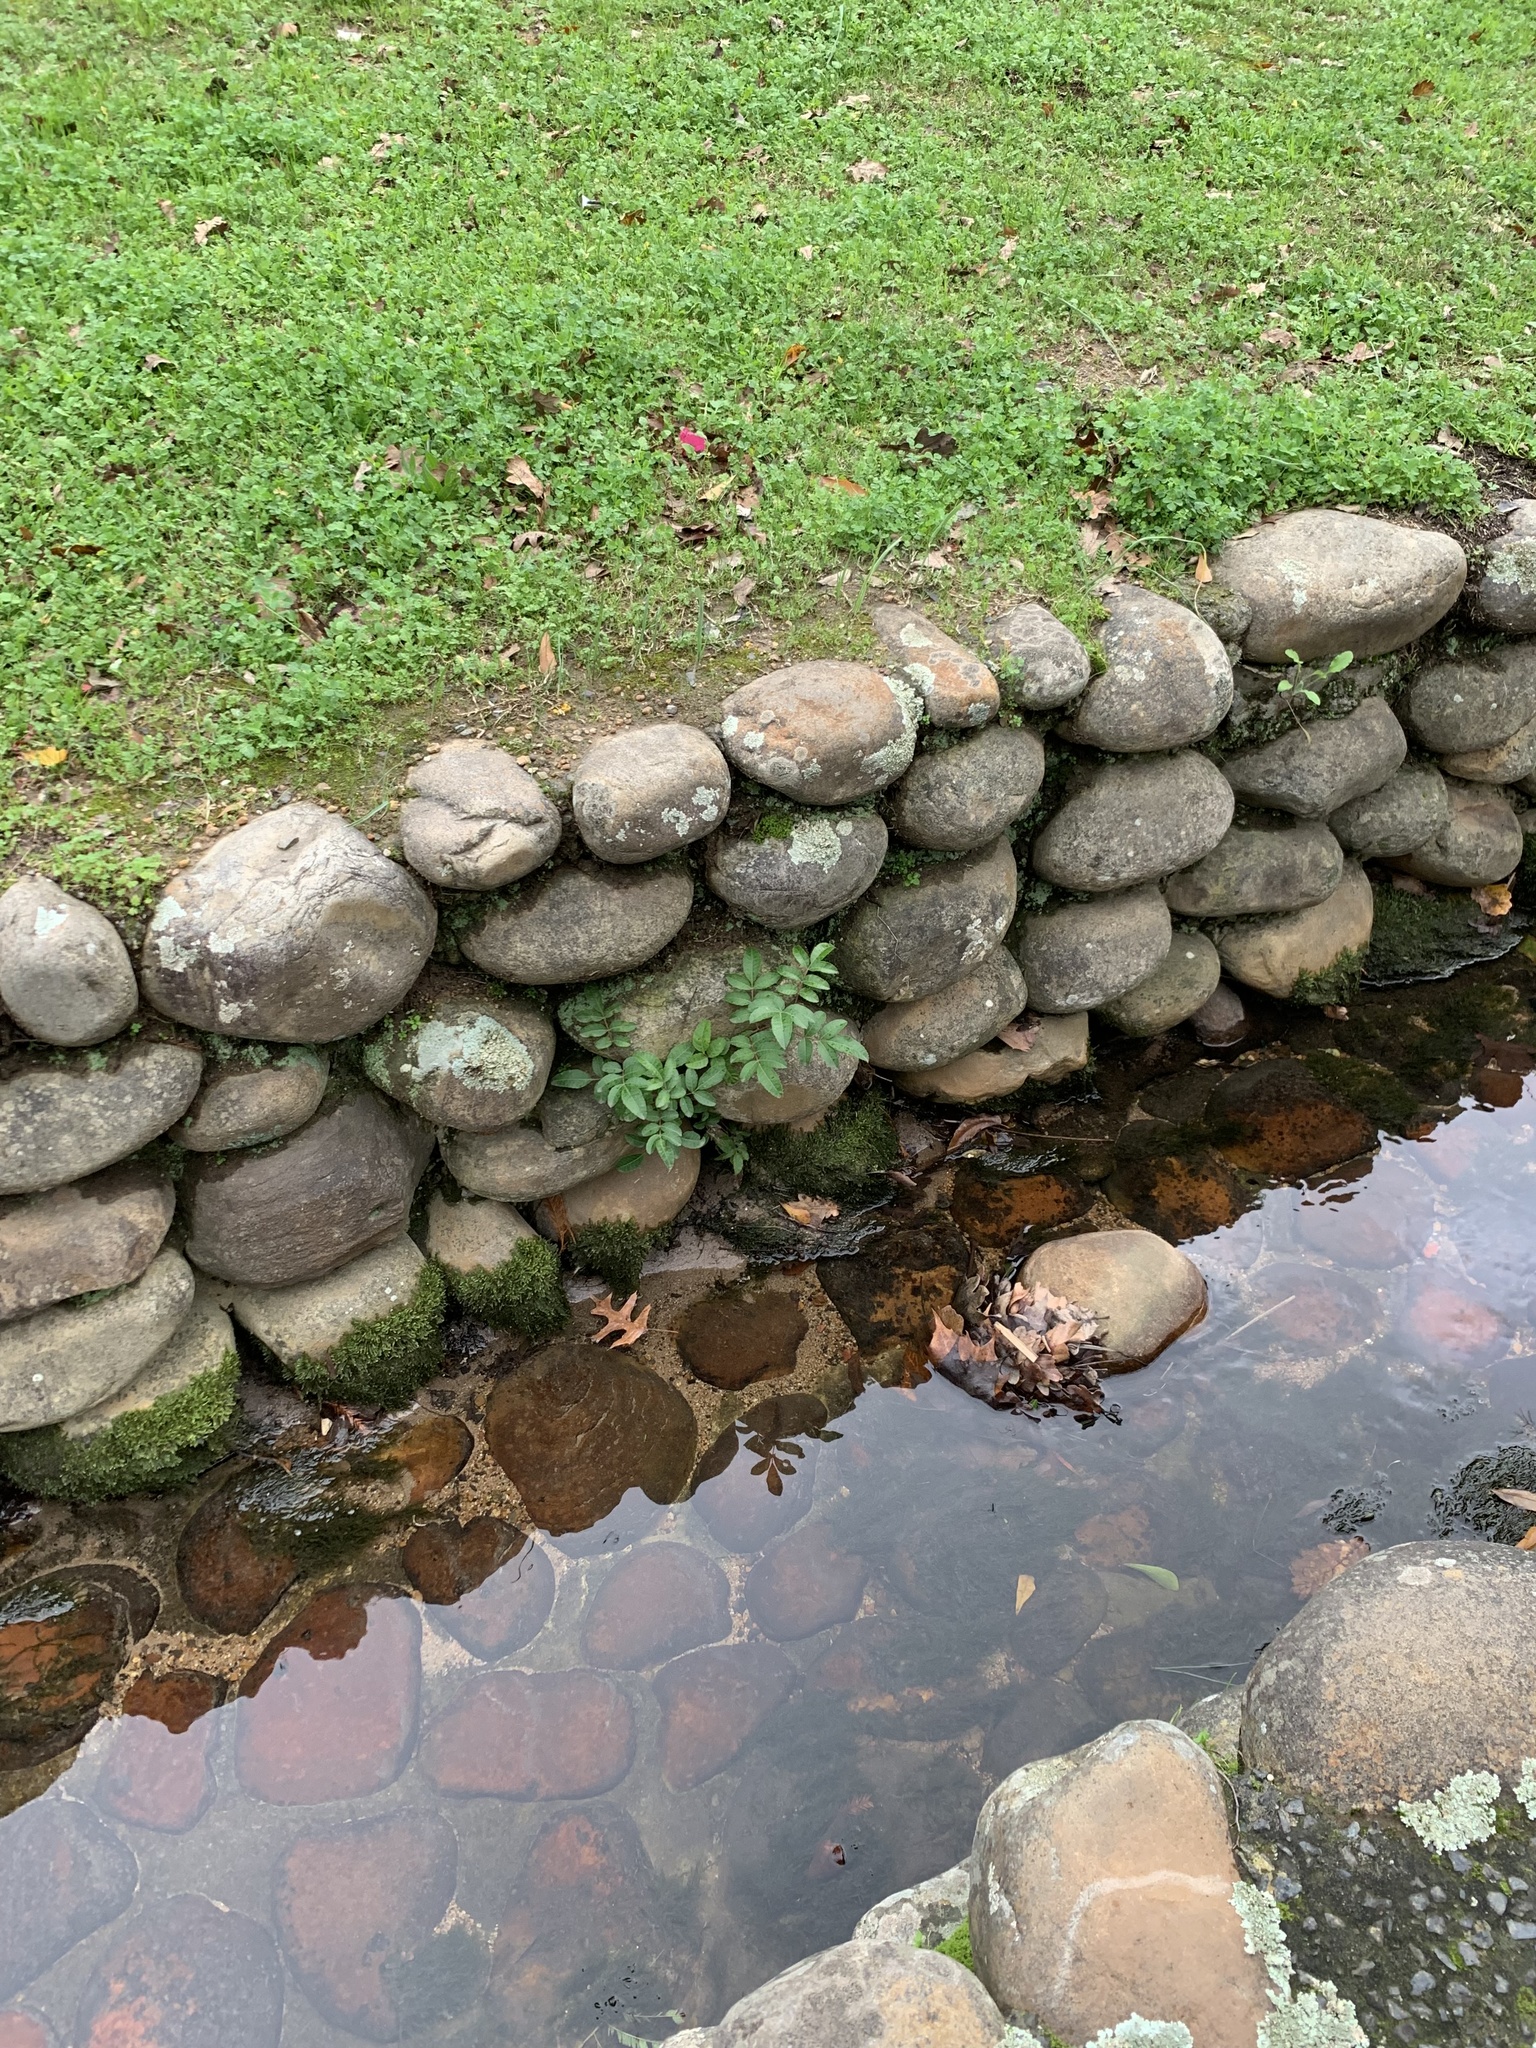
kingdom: Plantae
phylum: Tracheophyta
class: Magnoliopsida
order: Sapindales
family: Anacardiaceae
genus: Schinus
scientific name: Schinus terebinthifolia
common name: Brazilian peppertree
